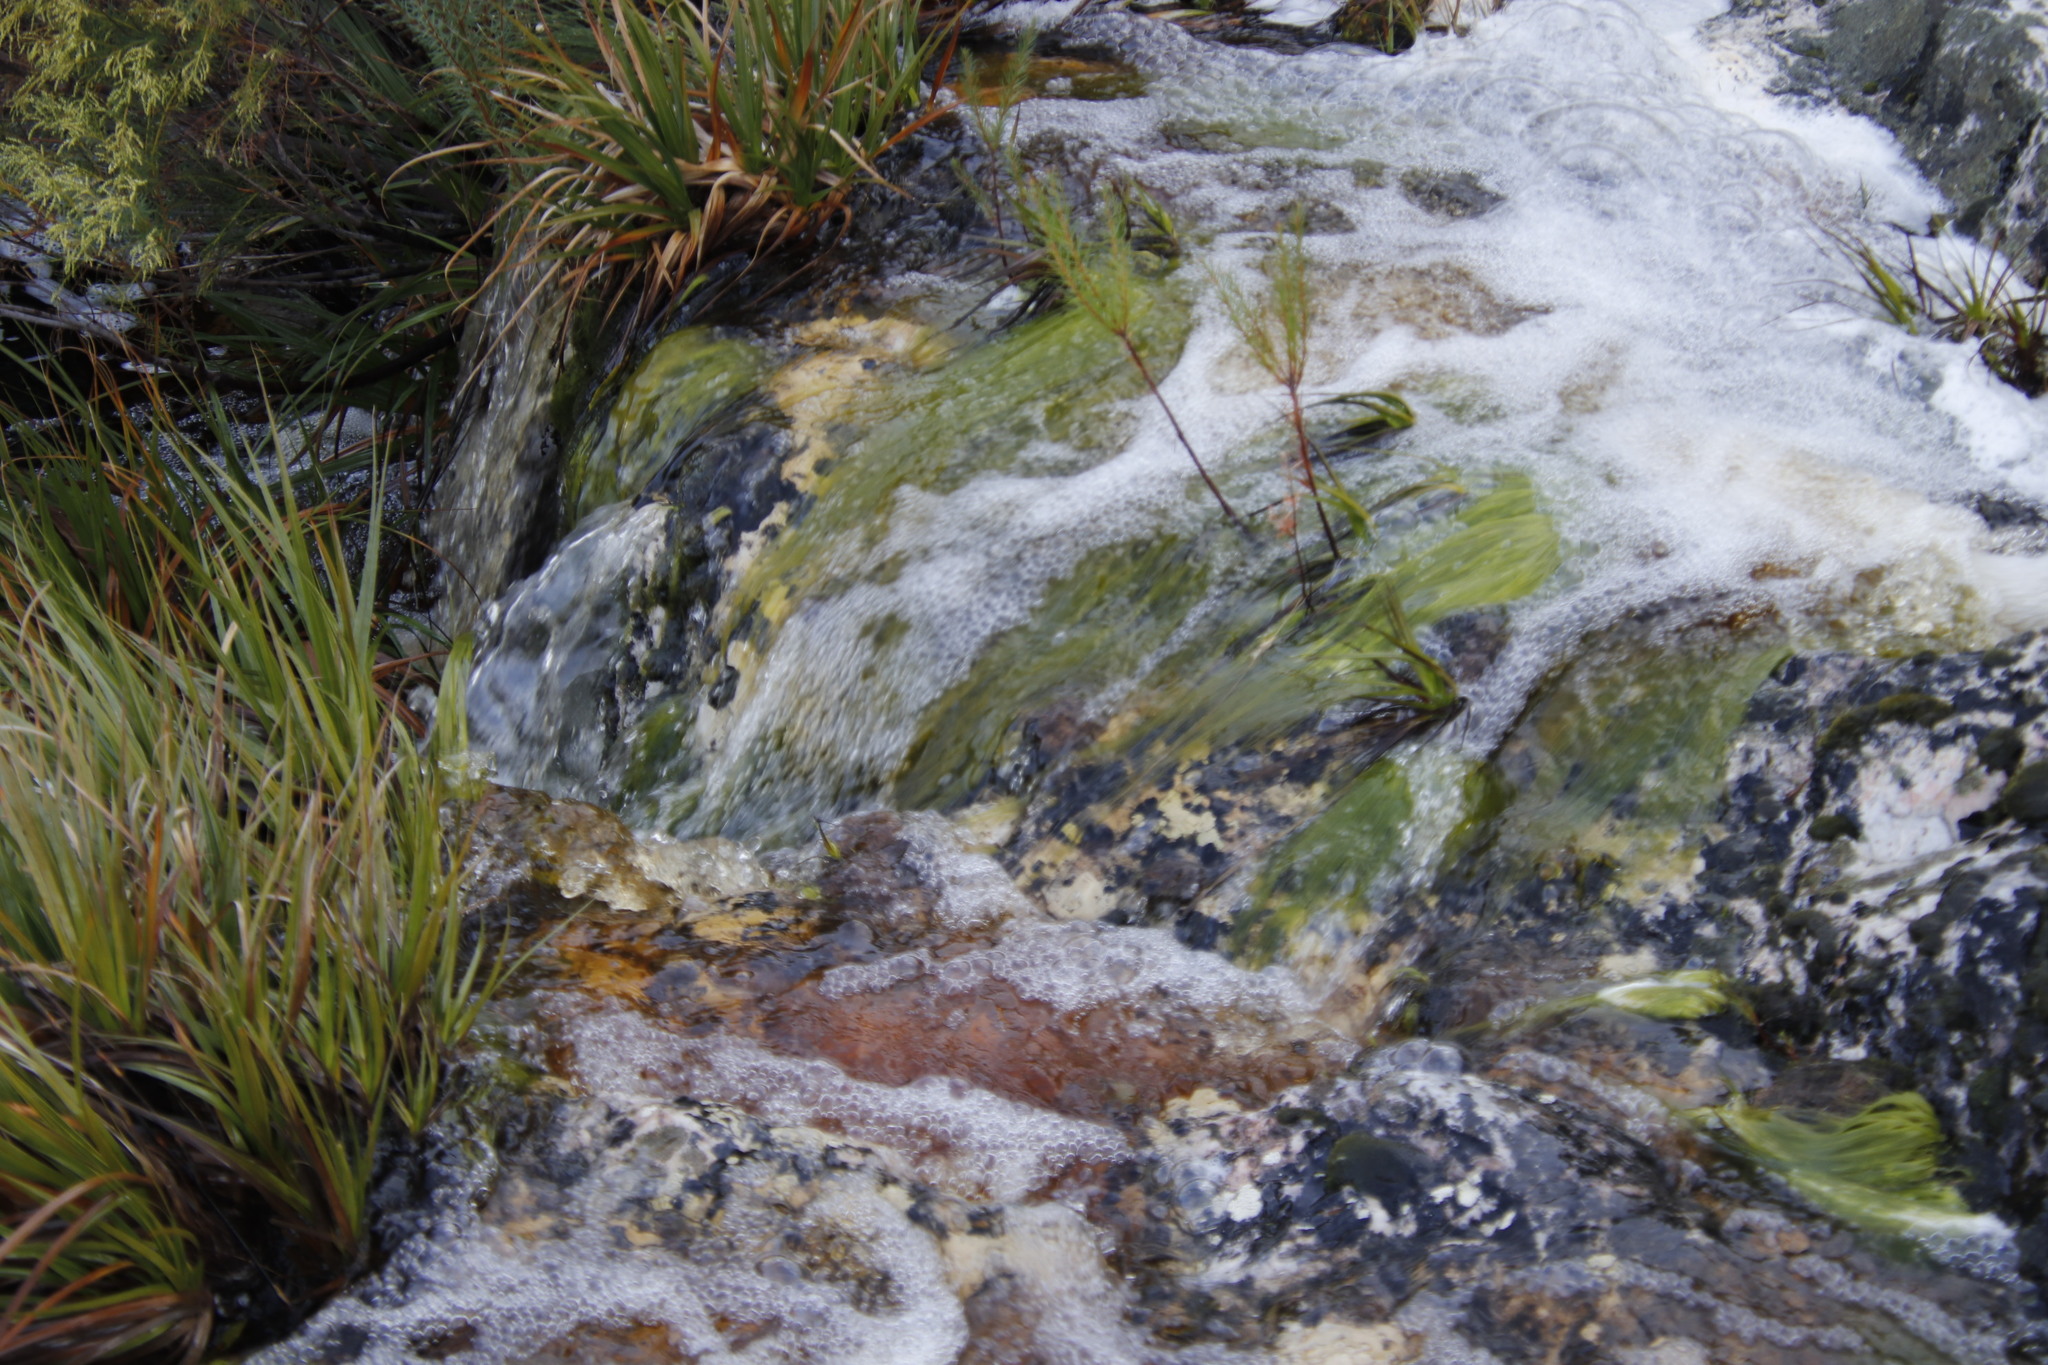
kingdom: Plantae
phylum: Tracheophyta
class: Liliopsida
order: Poales
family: Cyperaceae
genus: Isolepis
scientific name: Isolepis digitata
